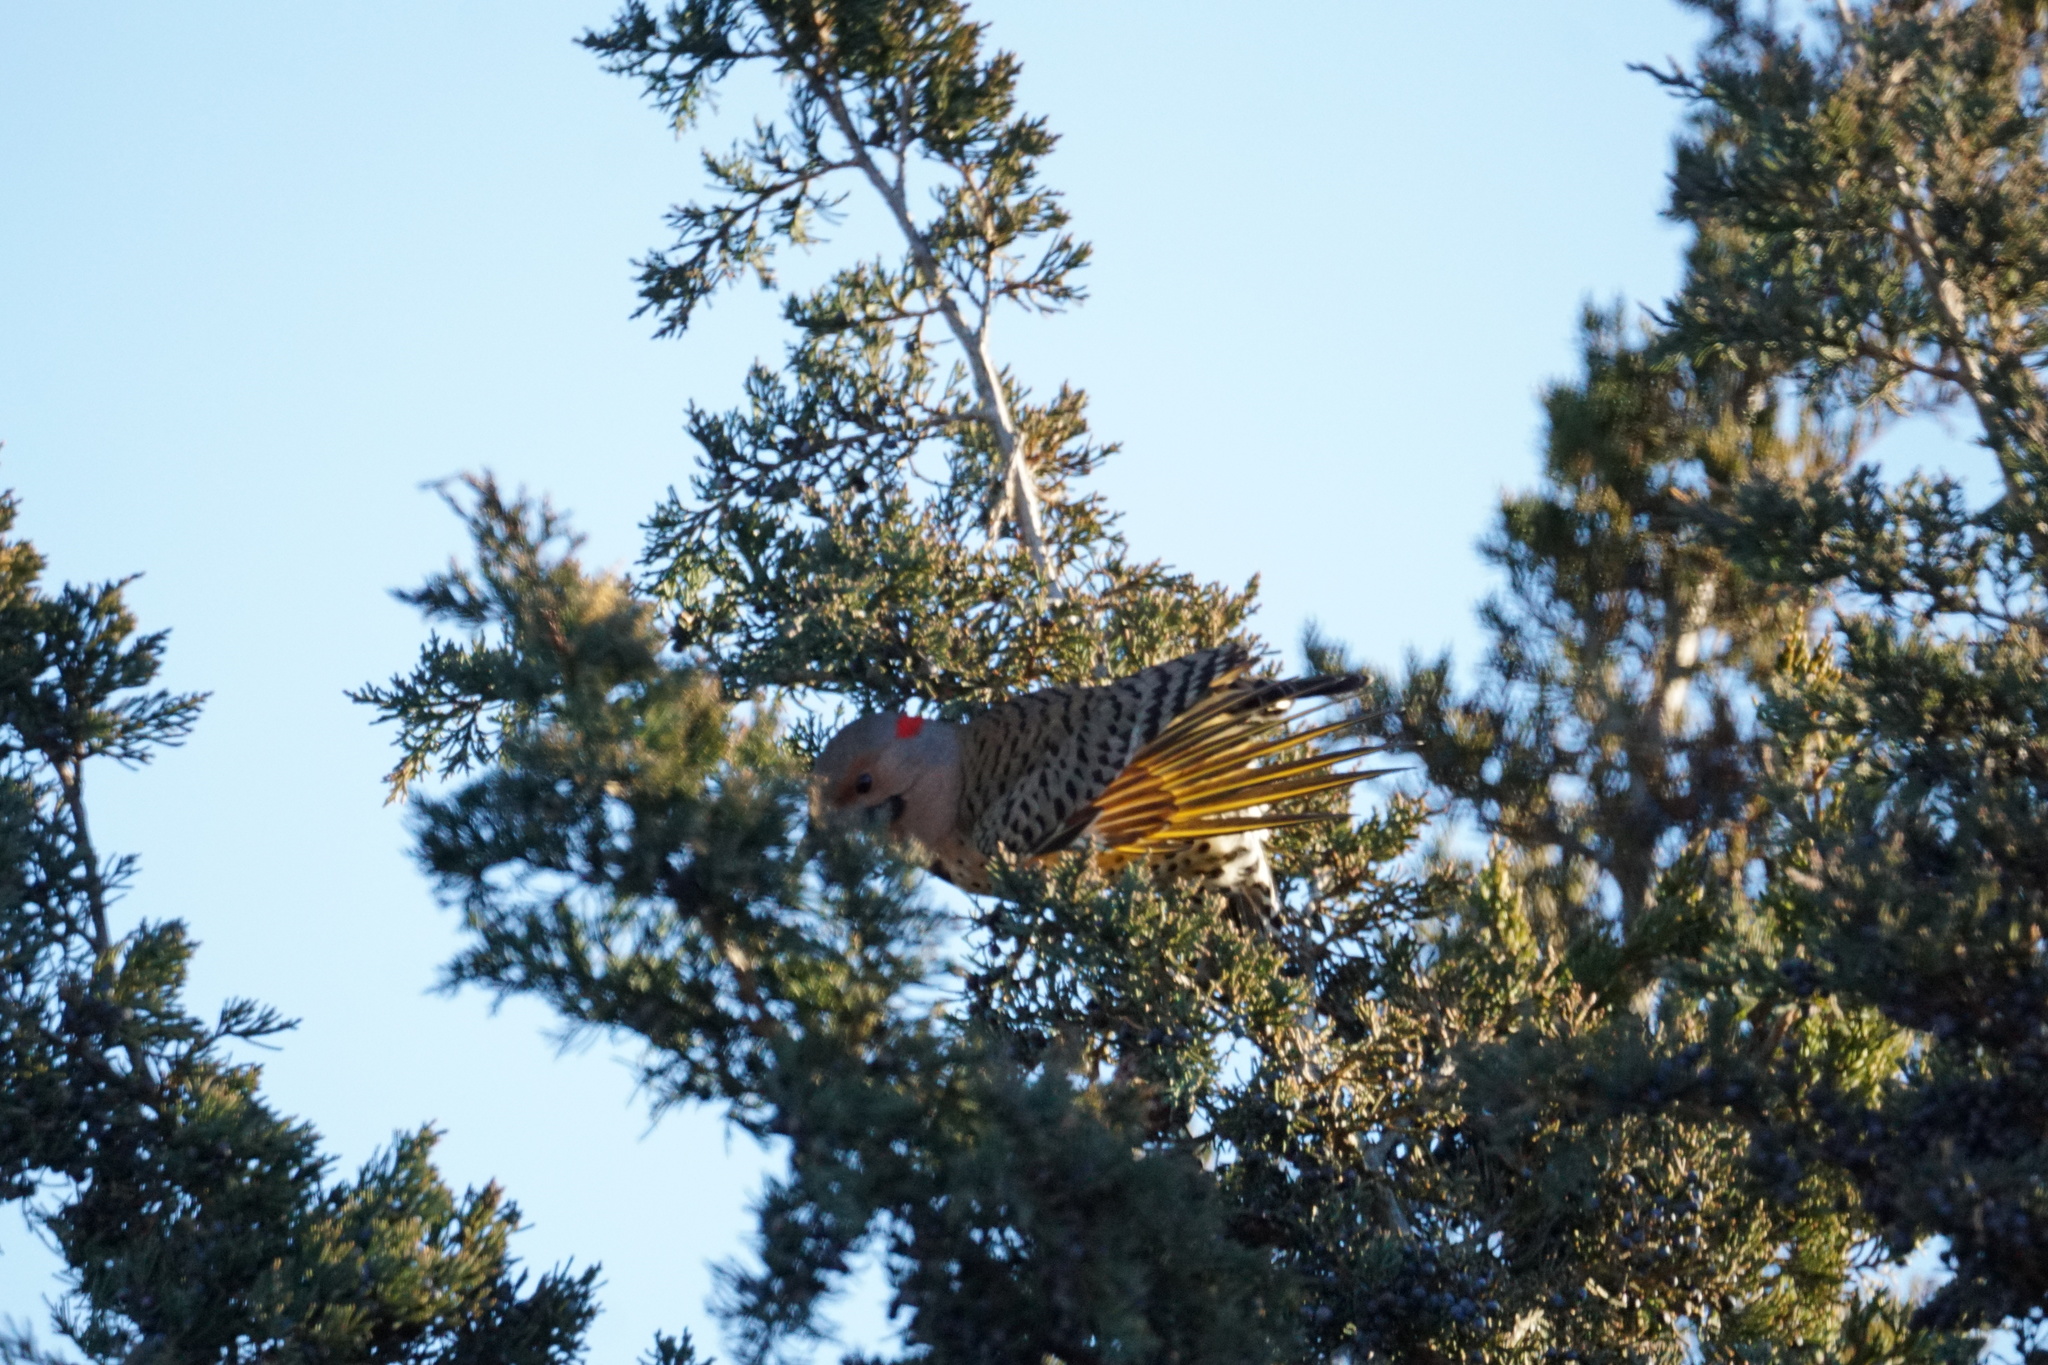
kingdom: Animalia
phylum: Chordata
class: Aves
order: Piciformes
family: Picidae
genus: Colaptes
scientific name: Colaptes auratus
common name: Northern flicker
